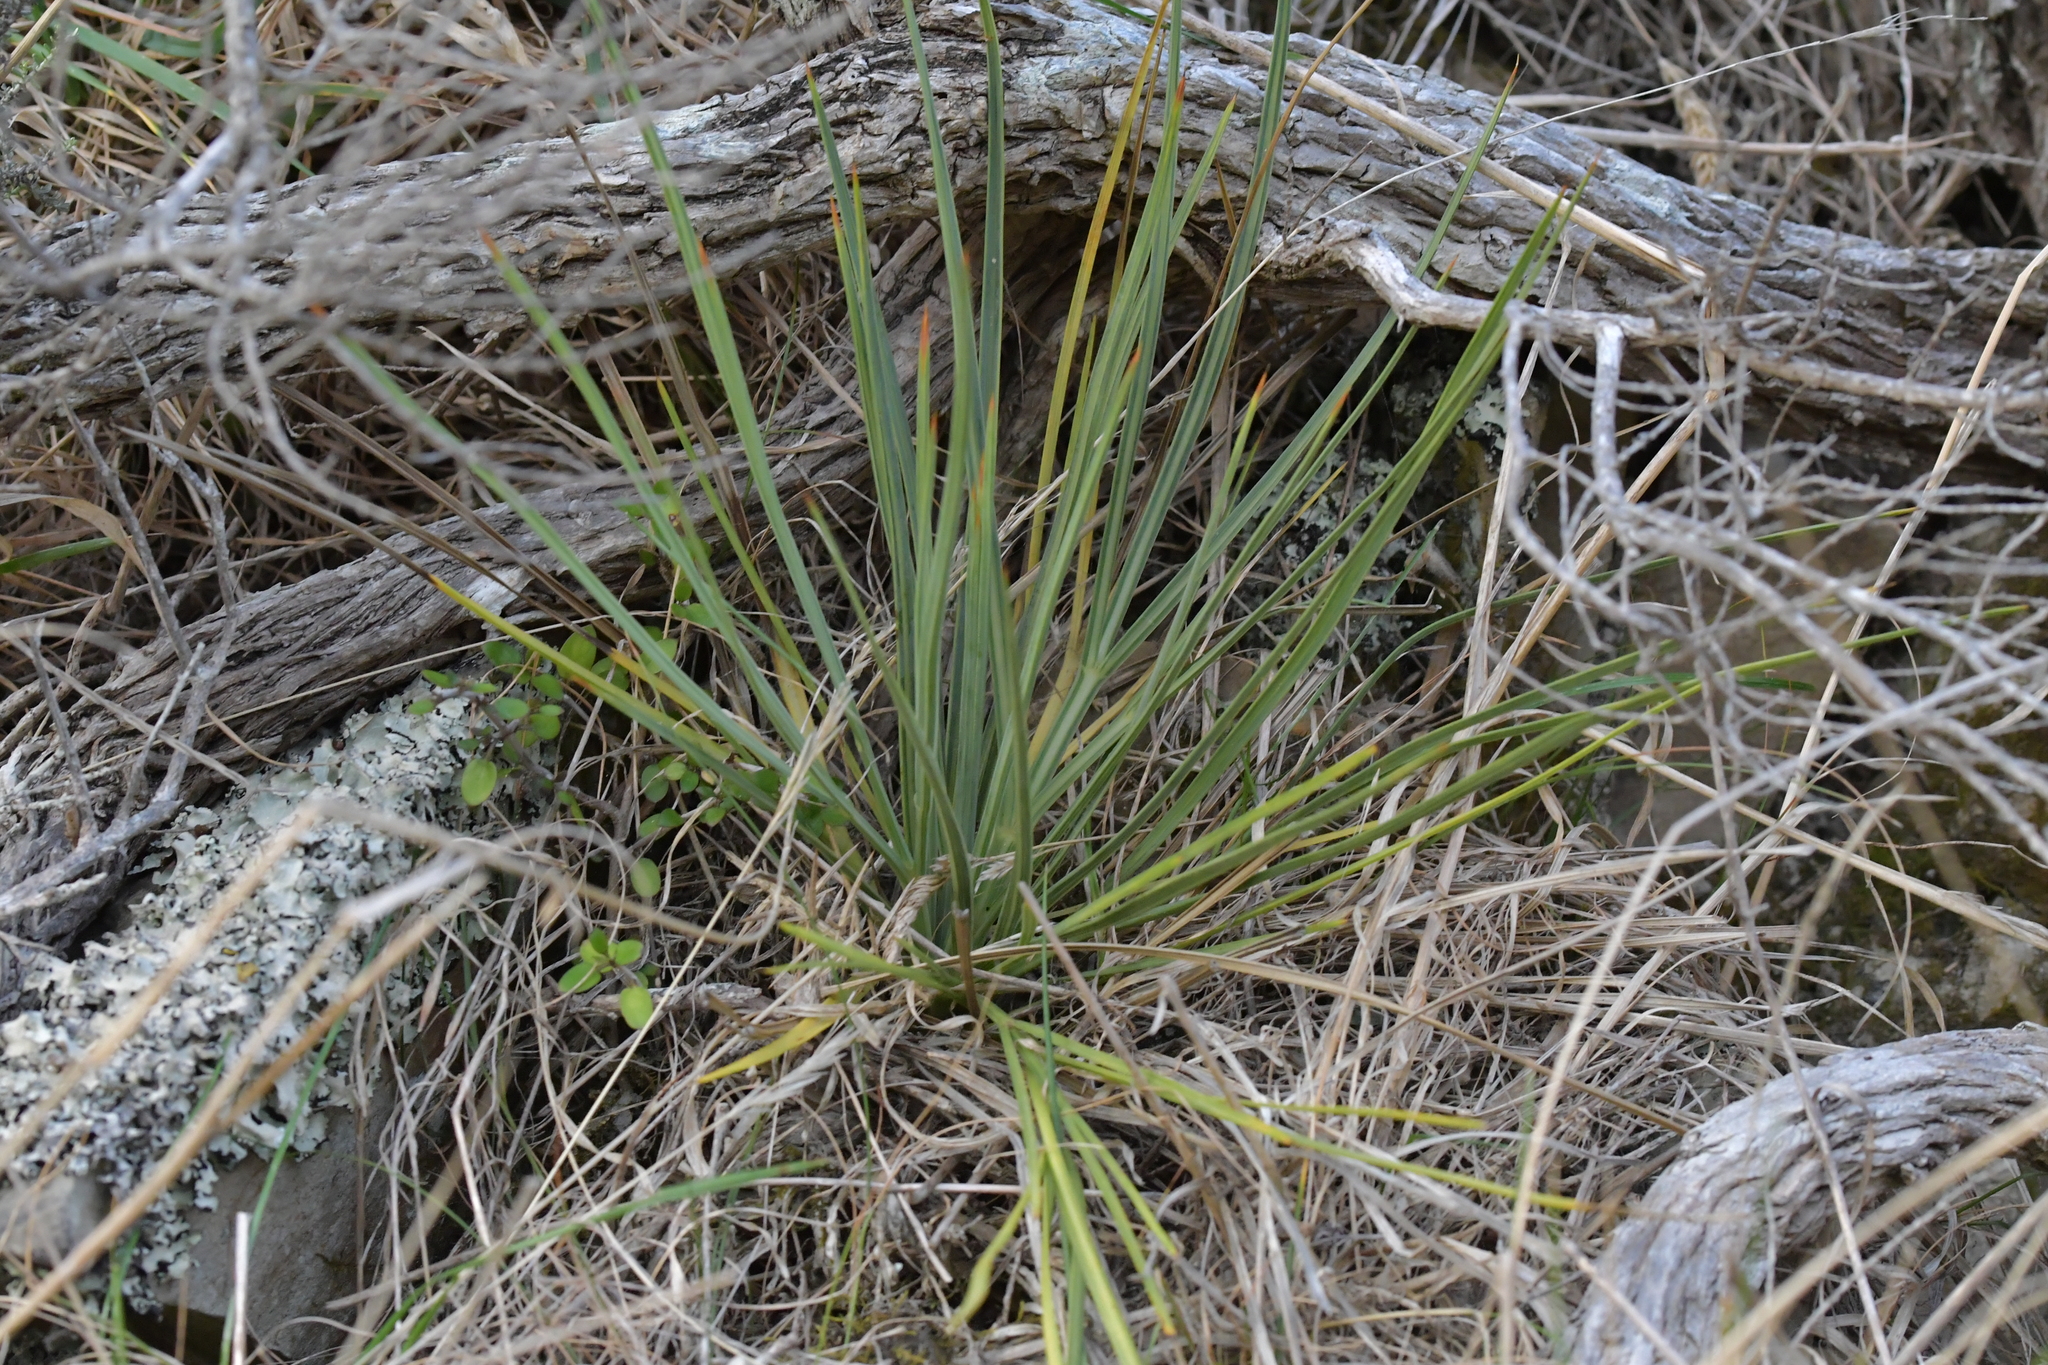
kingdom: Plantae
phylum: Tracheophyta
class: Magnoliopsida
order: Apiales
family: Apiaceae
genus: Aciphylla
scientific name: Aciphylla squarrosa
